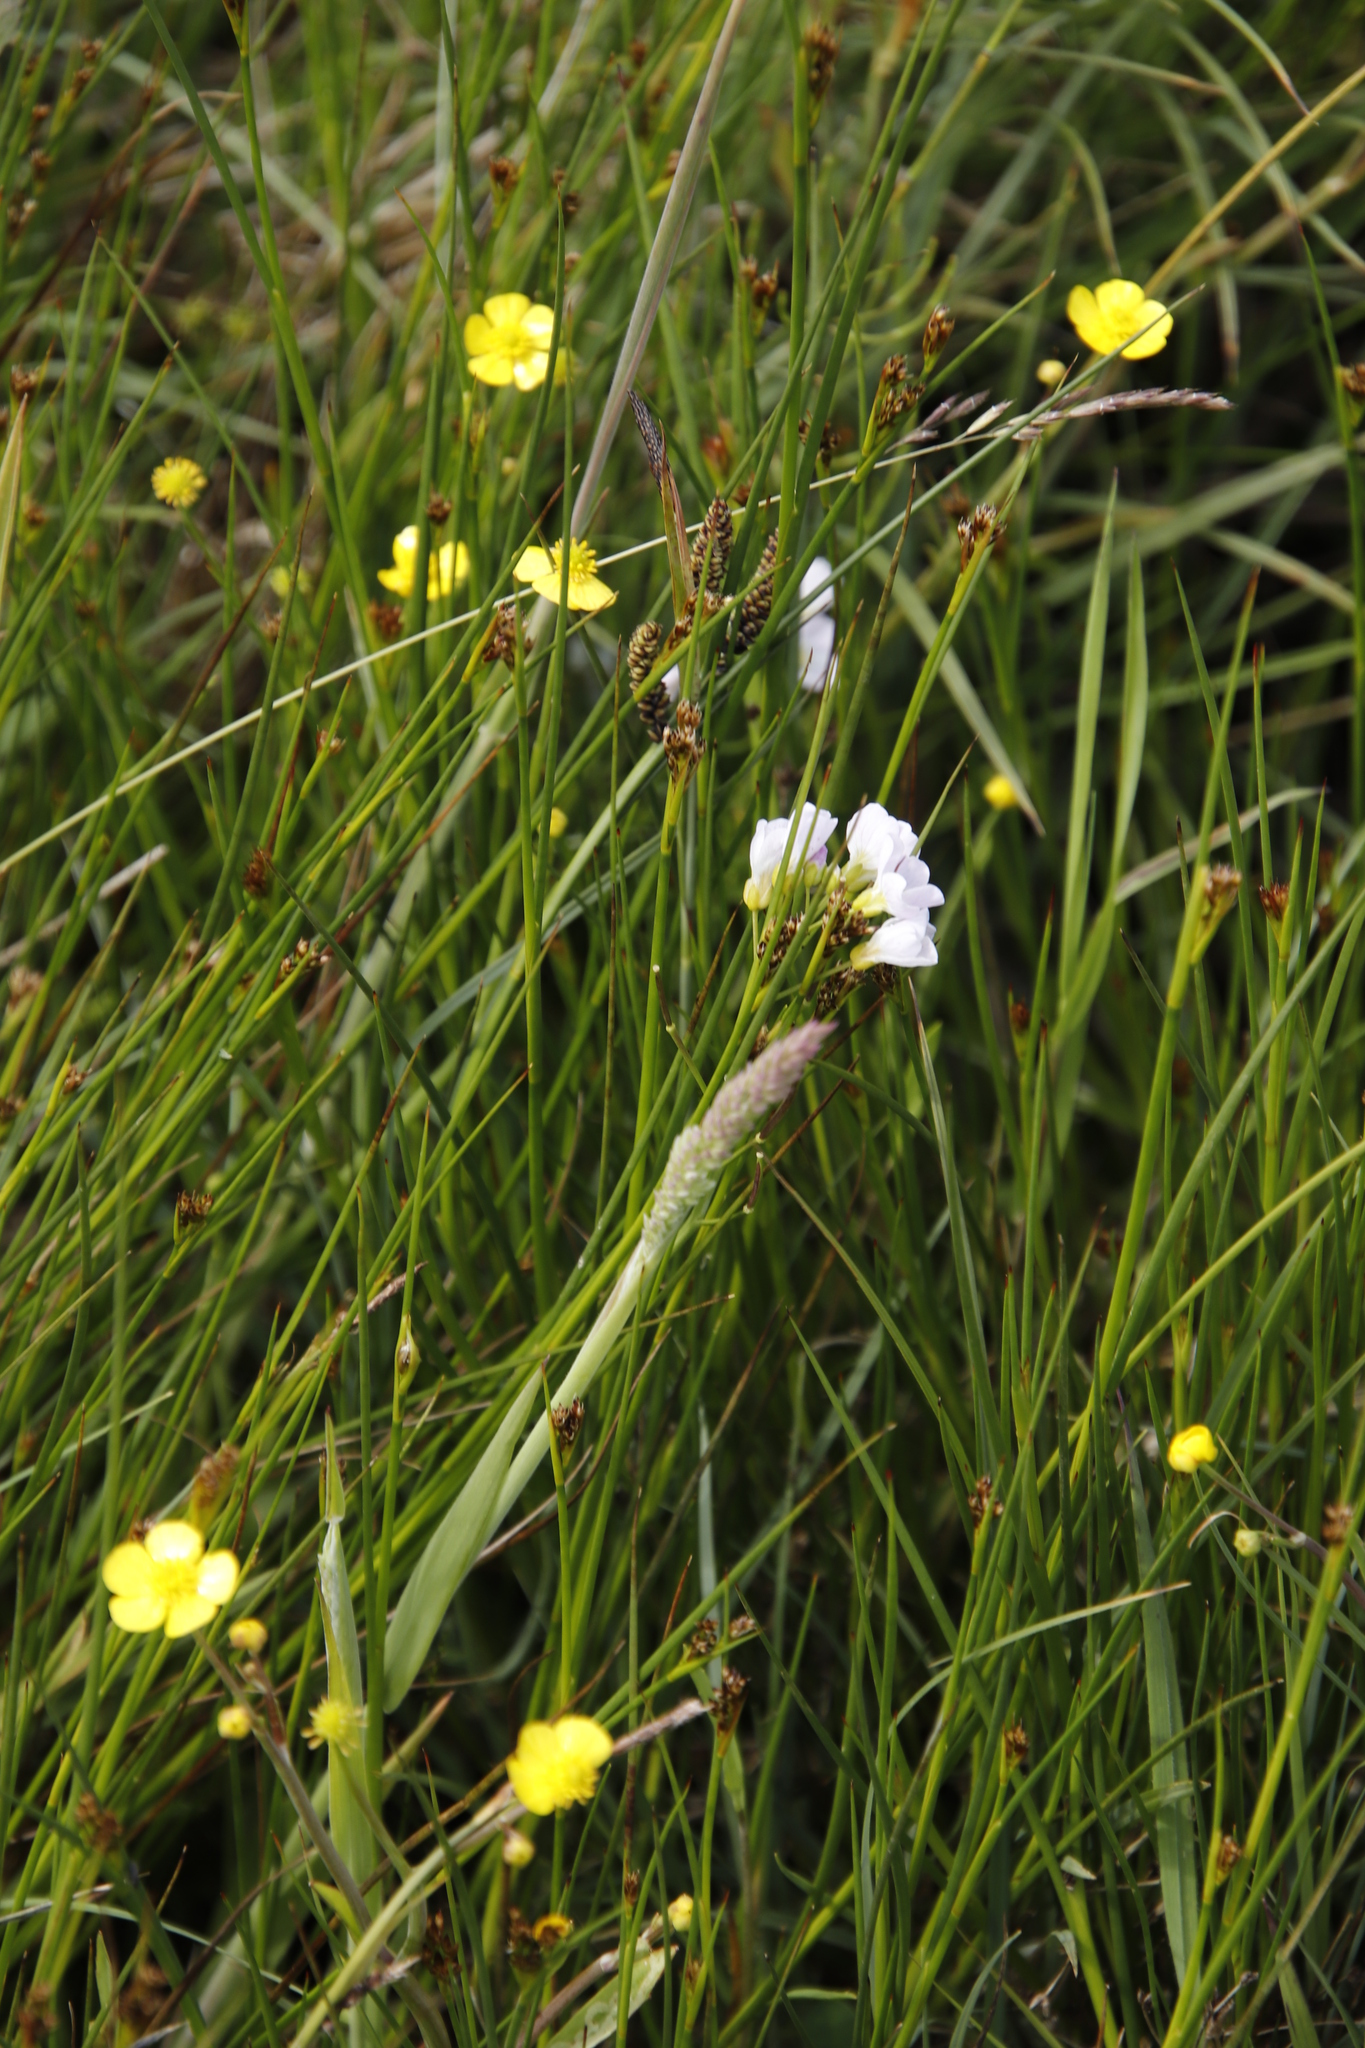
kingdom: Plantae
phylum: Tracheophyta
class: Magnoliopsida
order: Brassicales
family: Brassicaceae
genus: Cardamine
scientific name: Cardamine pratensis
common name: Cuckoo flower
